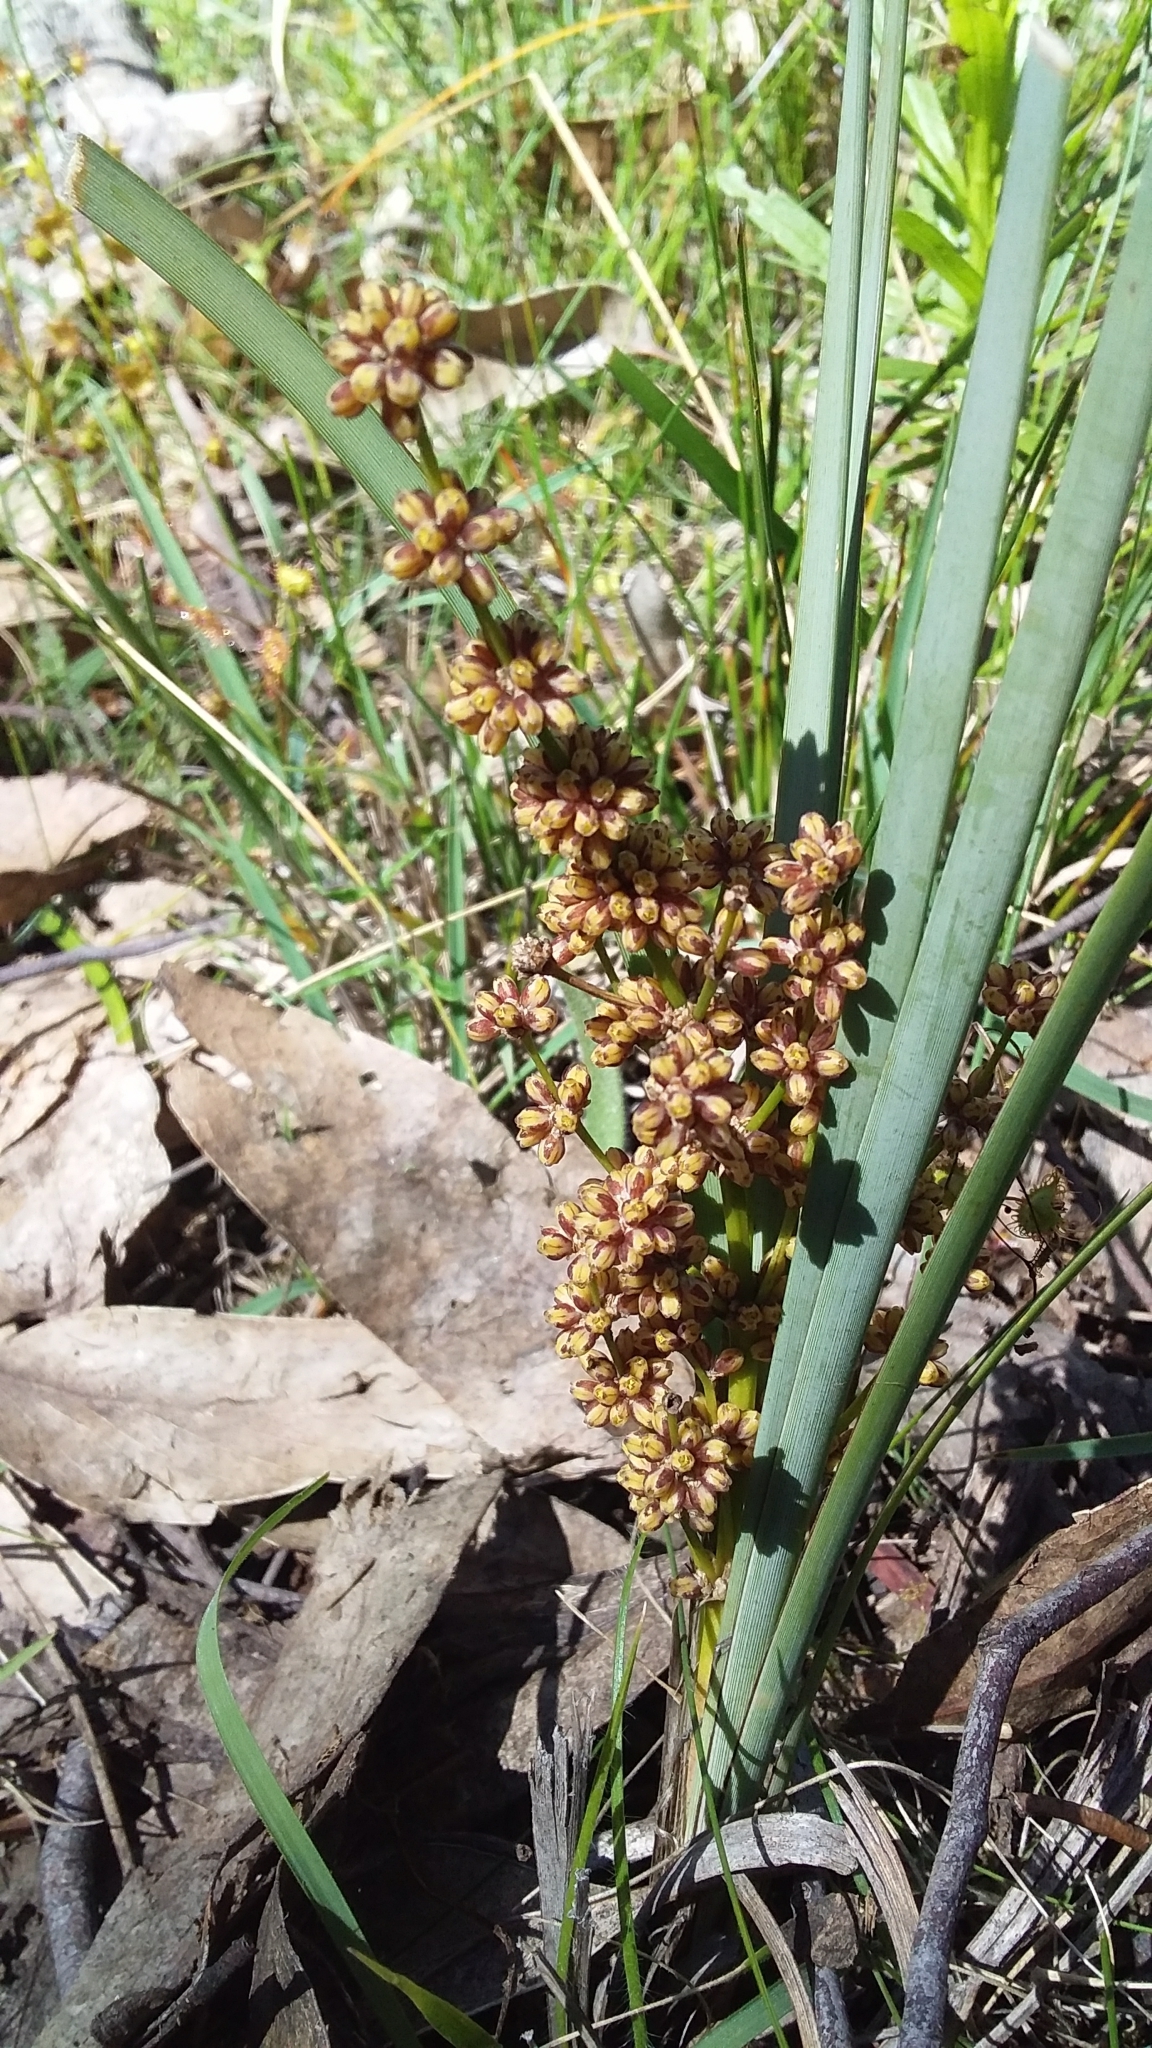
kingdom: Plantae
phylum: Tracheophyta
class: Liliopsida
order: Asparagales
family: Asparagaceae
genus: Lomandra
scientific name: Lomandra multiflora
